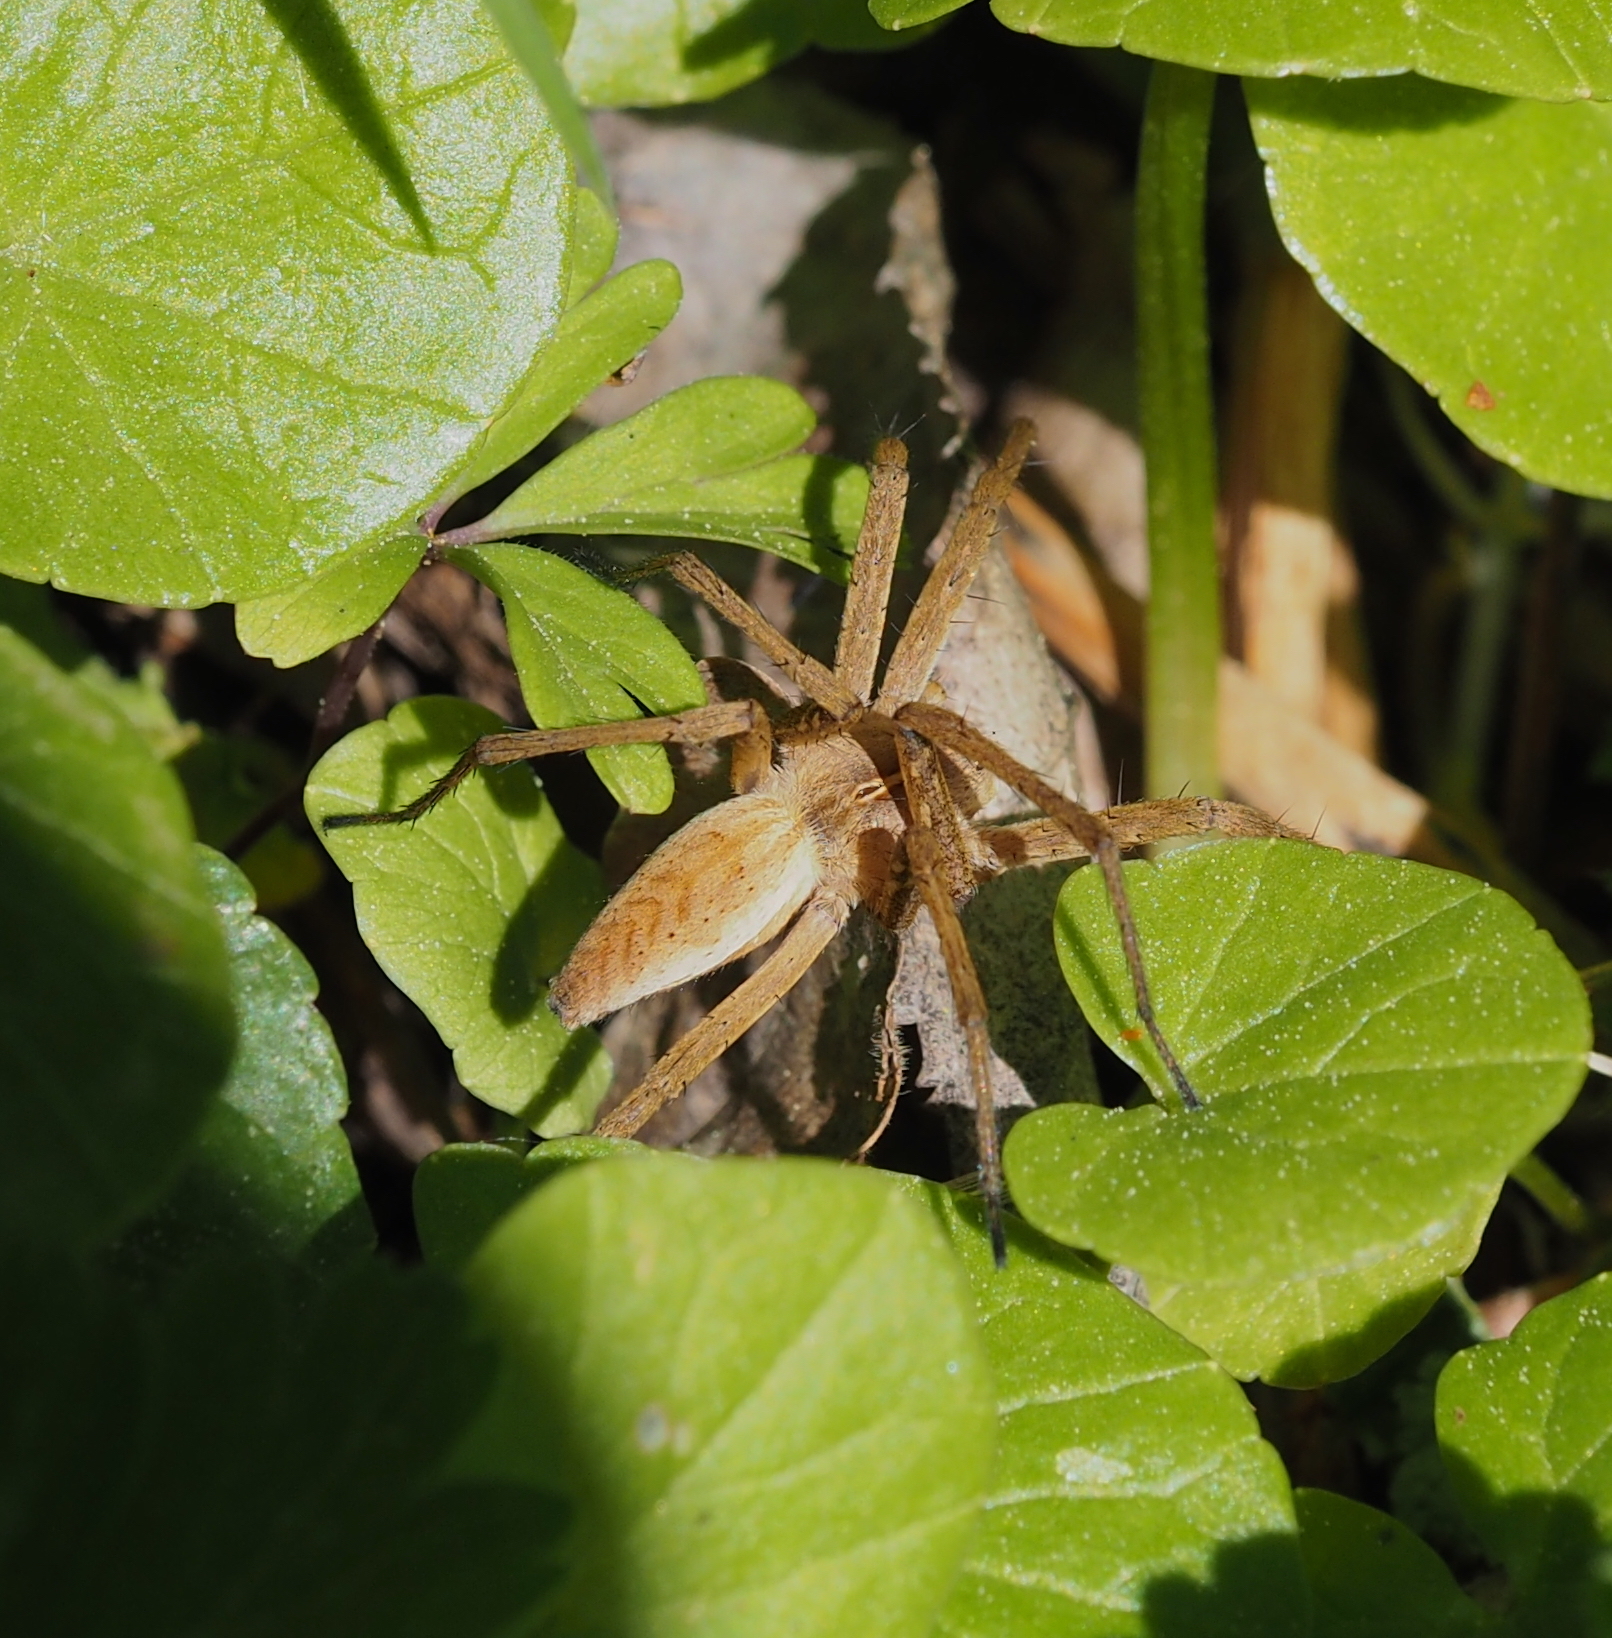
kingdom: Animalia
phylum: Arthropoda
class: Arachnida
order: Araneae
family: Pisauridae
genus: Pisaura
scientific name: Pisaura mirabilis
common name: Tent spider
